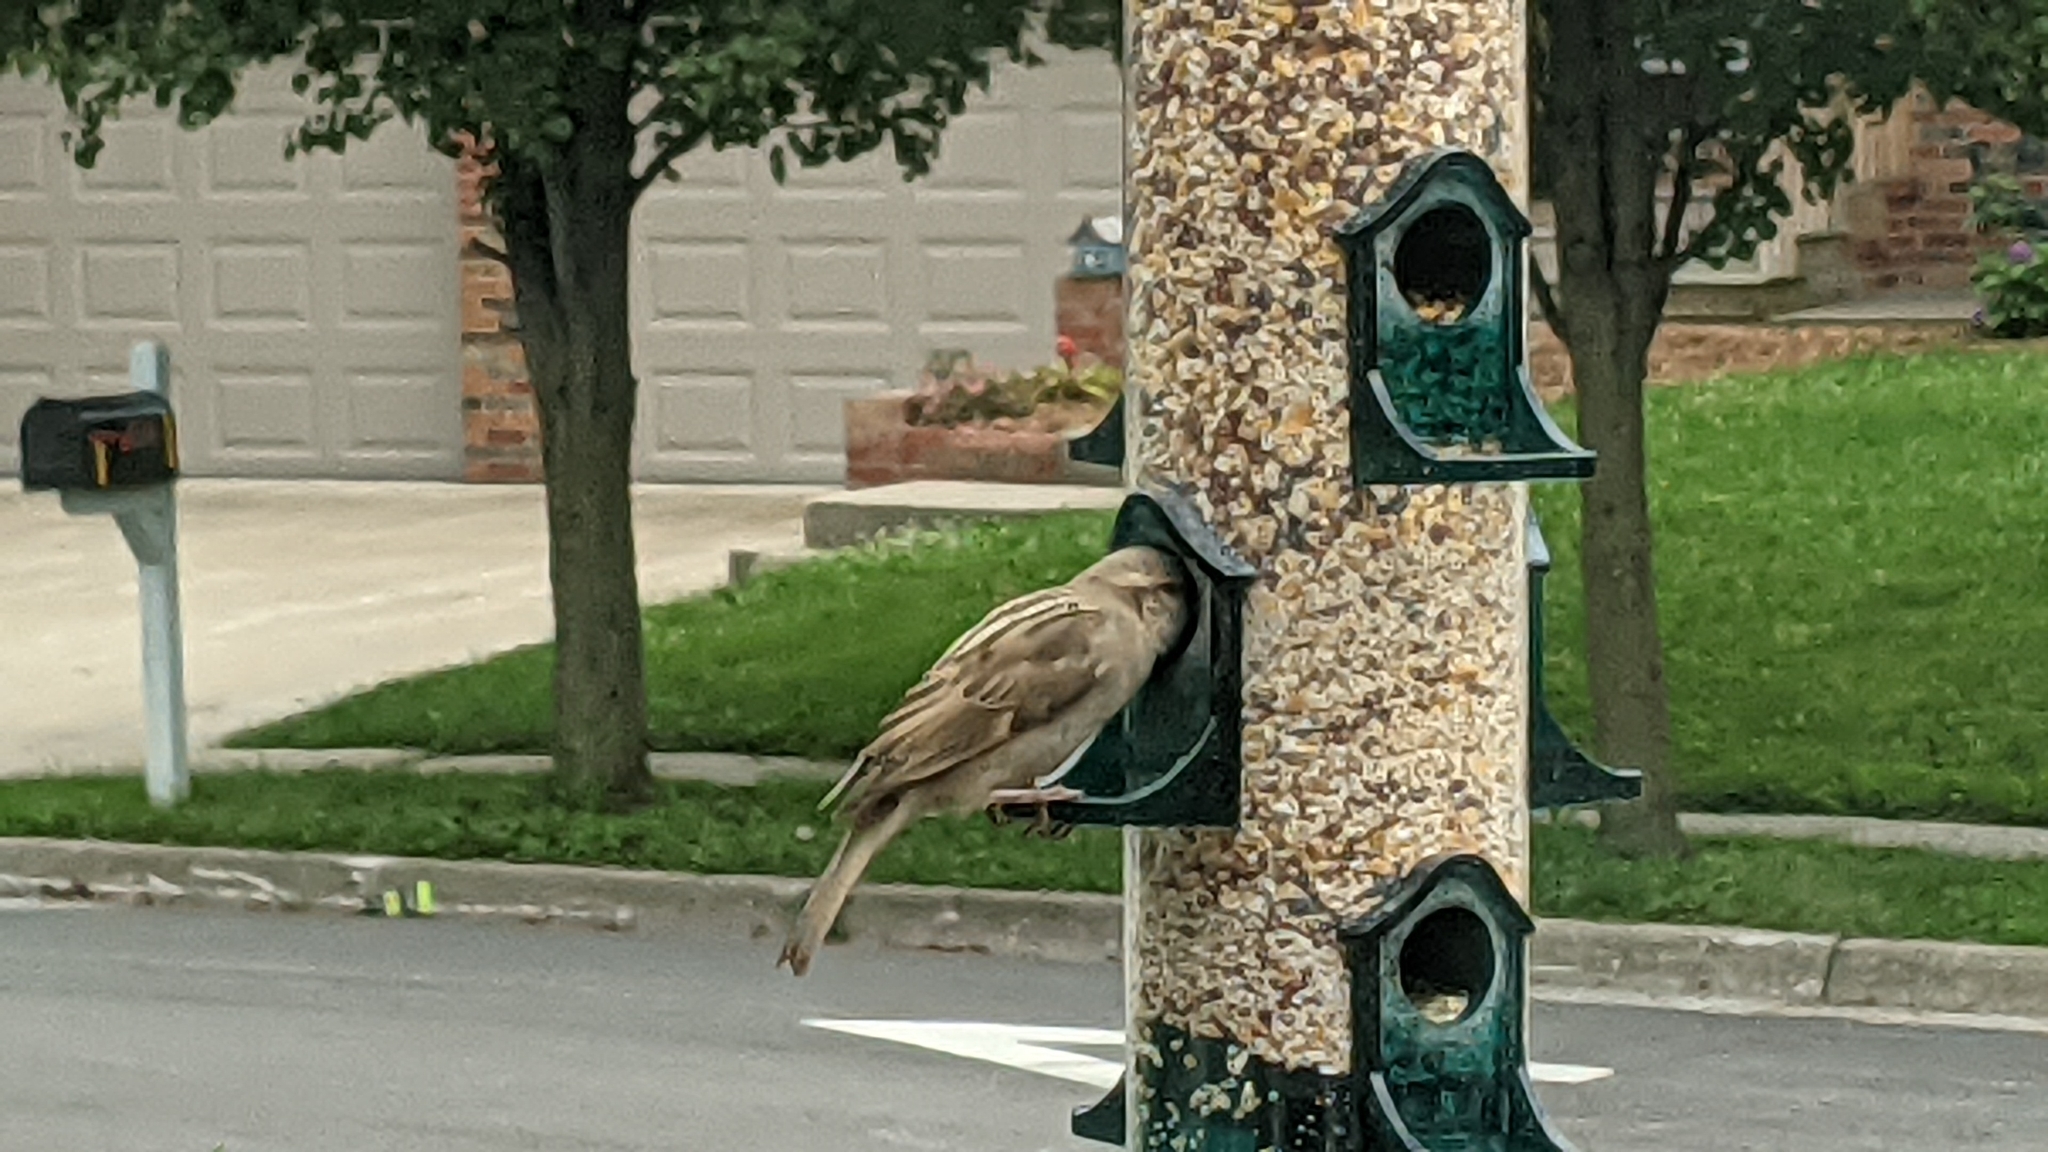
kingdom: Animalia
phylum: Chordata
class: Aves
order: Passeriformes
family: Passeridae
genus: Passer
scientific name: Passer domesticus
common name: House sparrow
